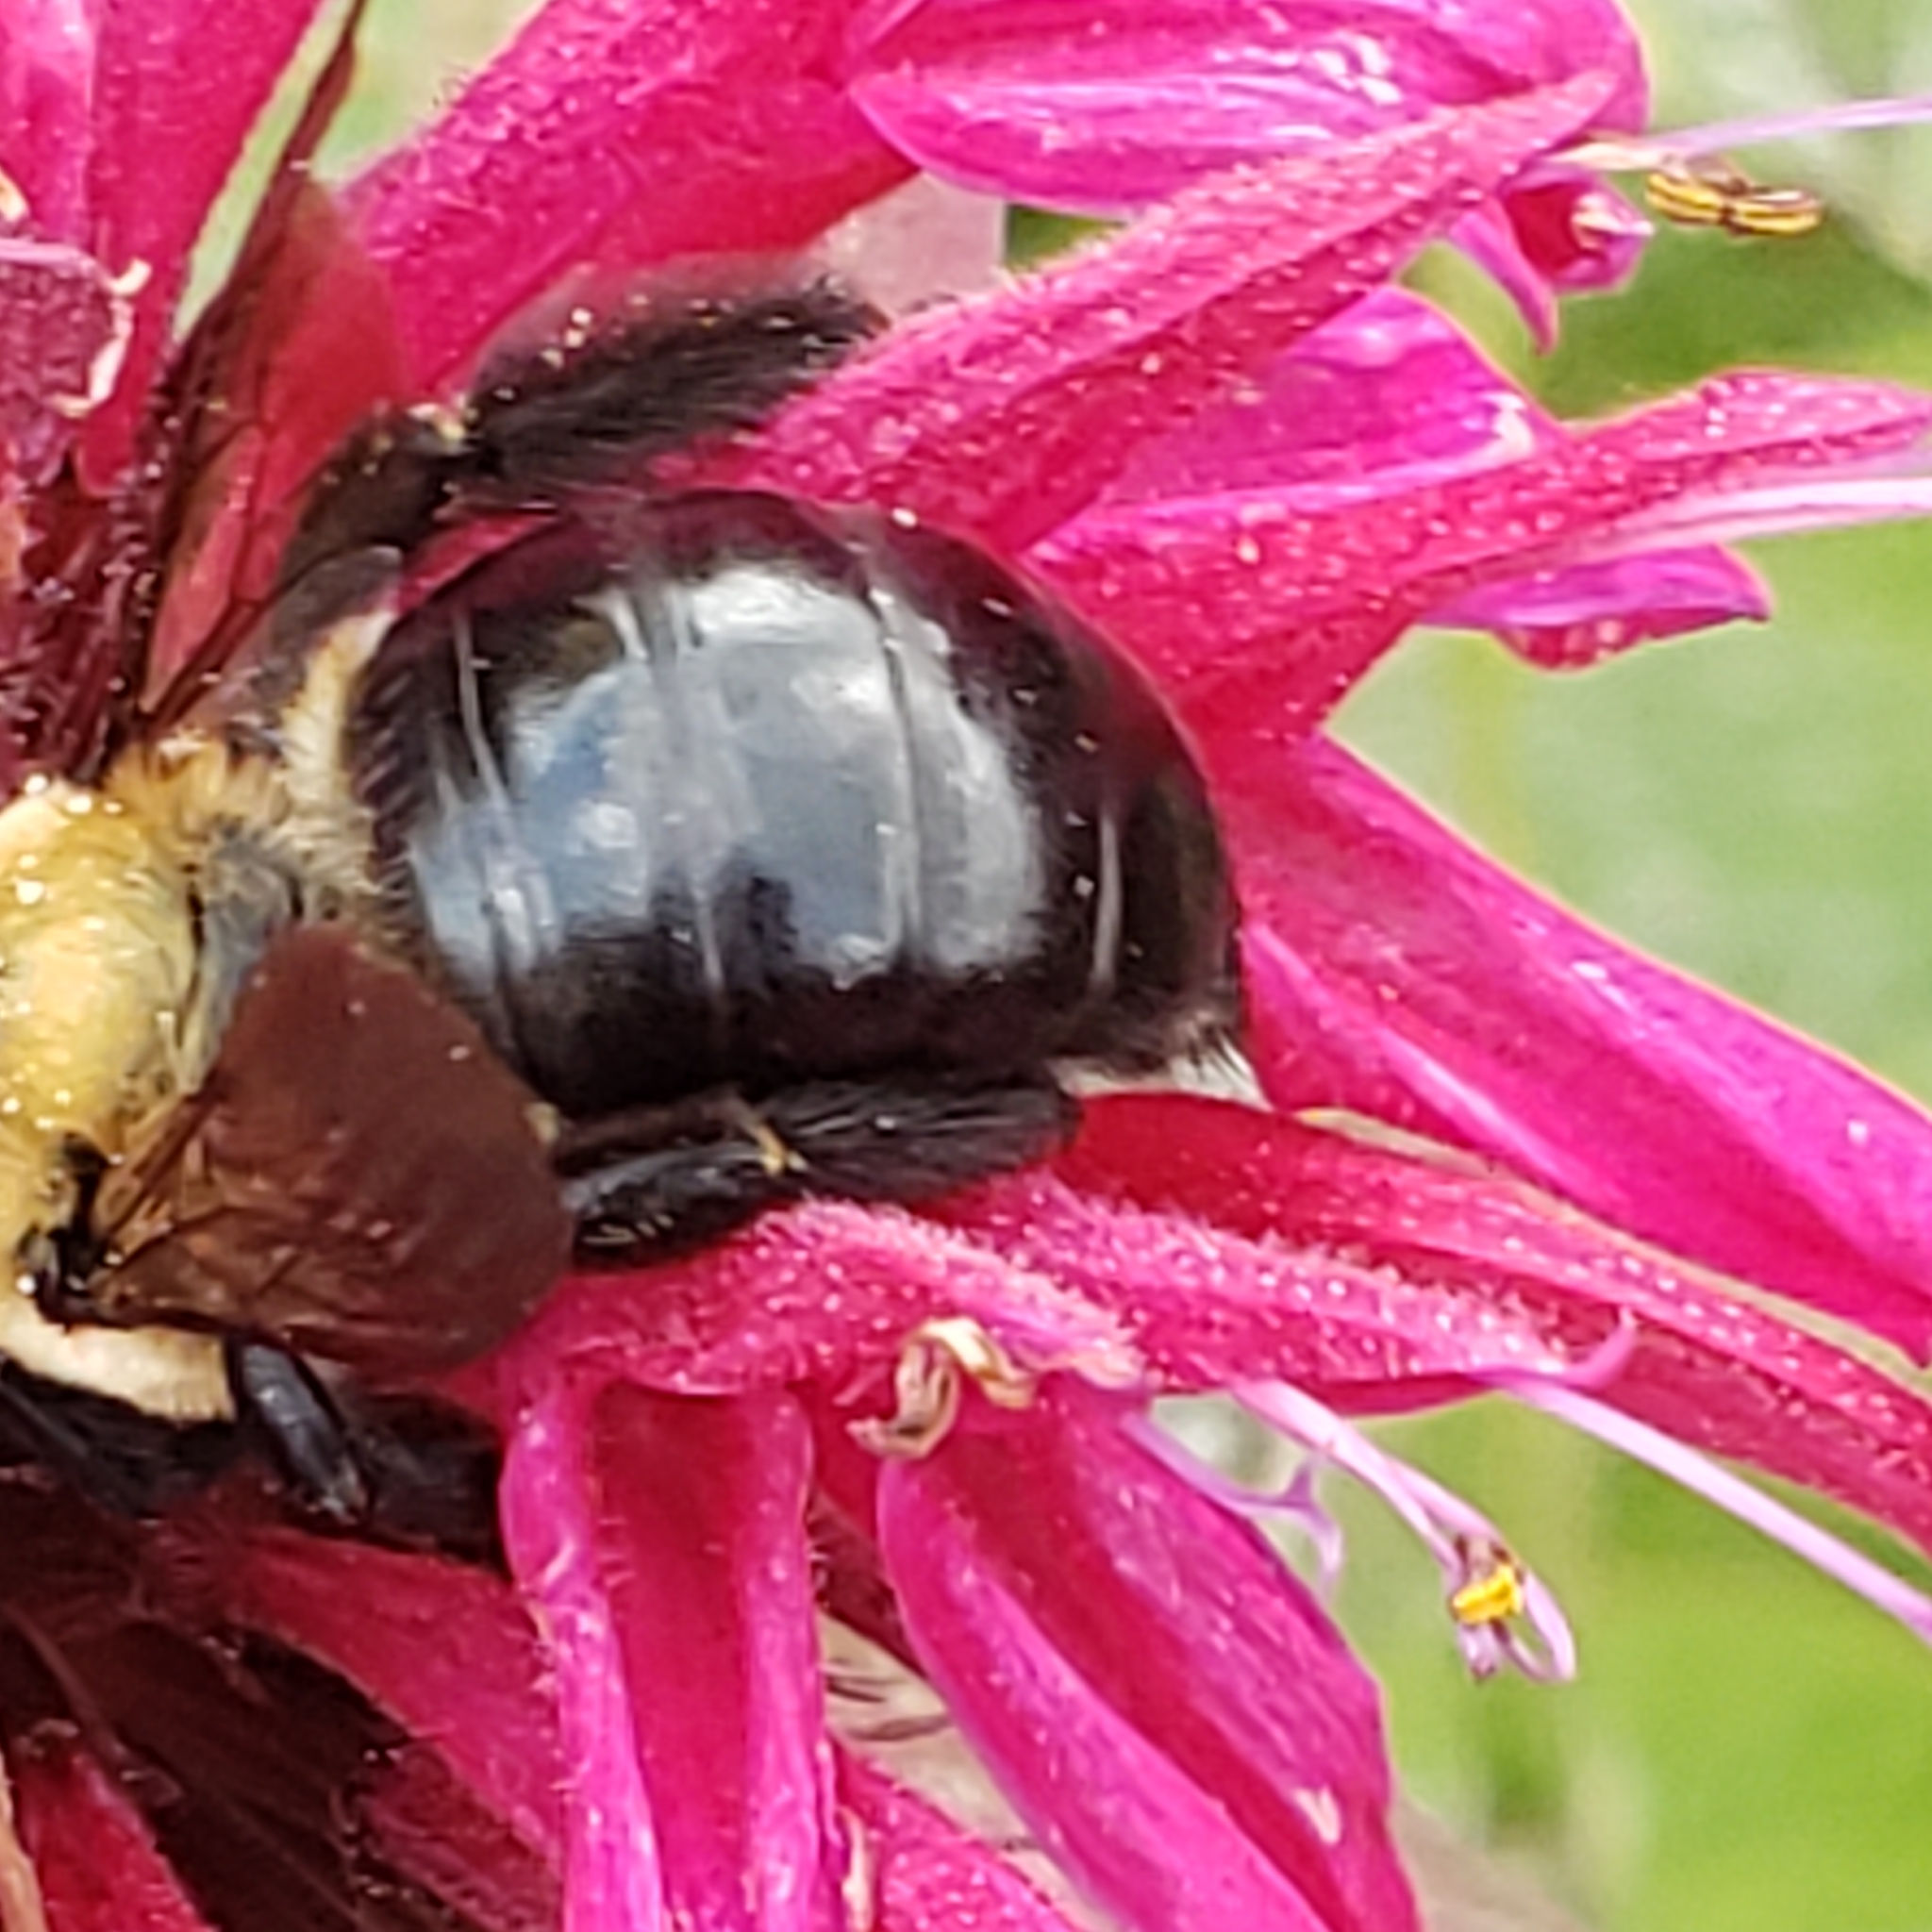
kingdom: Animalia
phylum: Arthropoda
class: Insecta
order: Hymenoptera
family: Apidae
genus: Xylocopa
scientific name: Xylocopa virginica
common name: Carpenter bee
